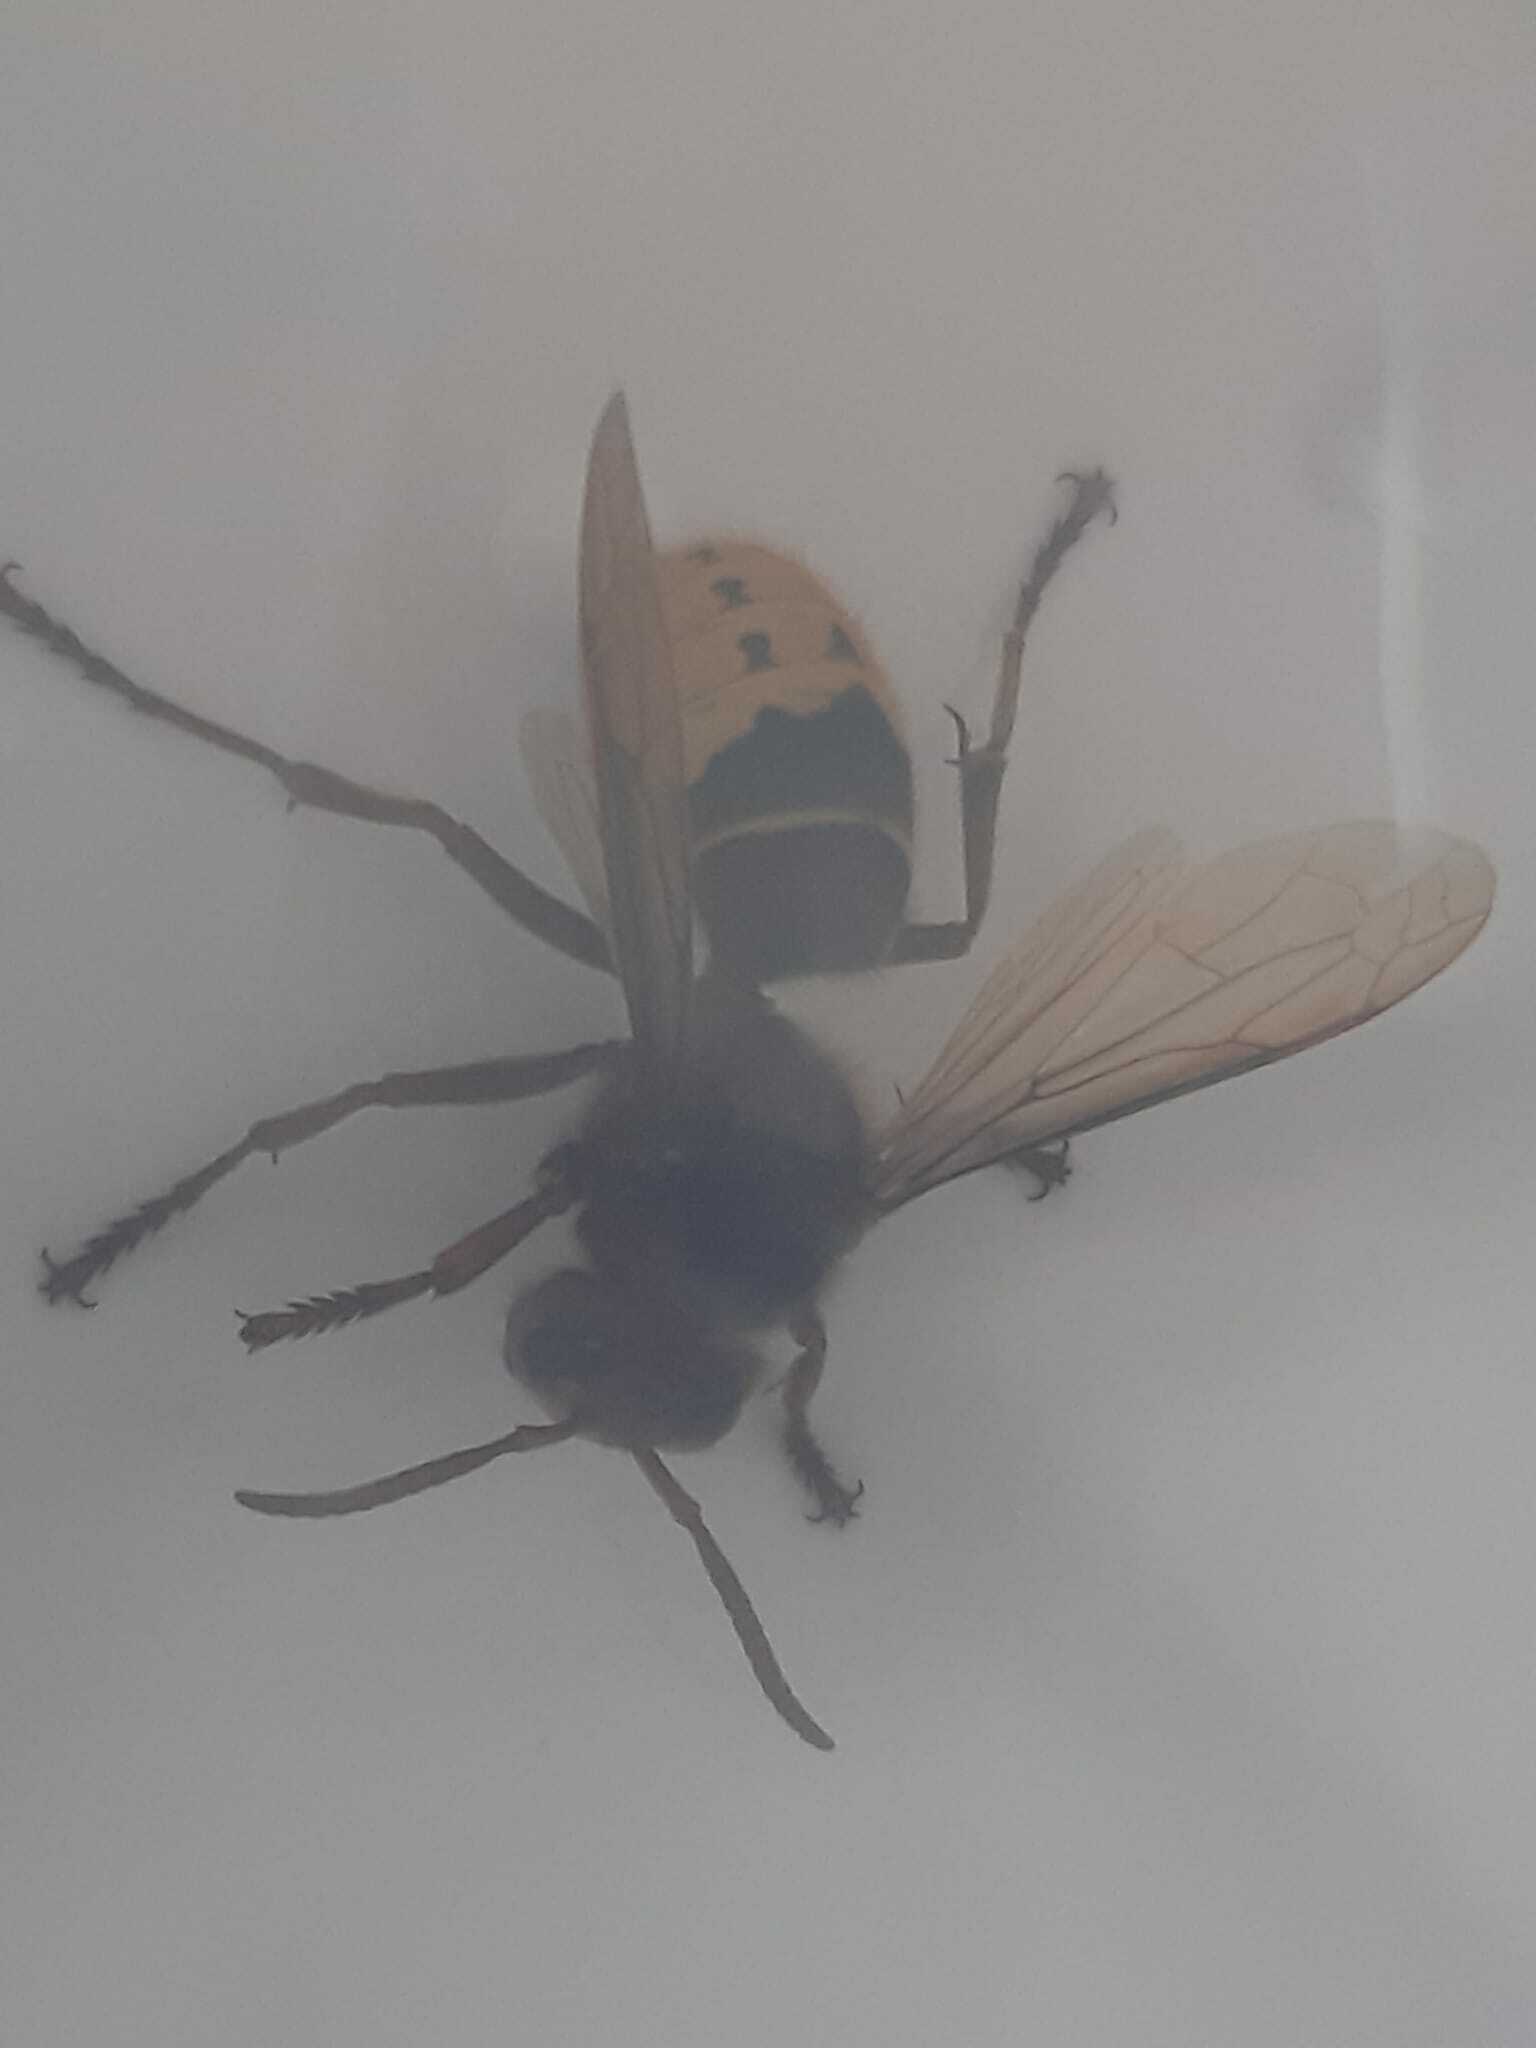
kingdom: Animalia
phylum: Arthropoda
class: Insecta
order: Hymenoptera
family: Vespidae
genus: Vespa
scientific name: Vespa crabro
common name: Hornet
